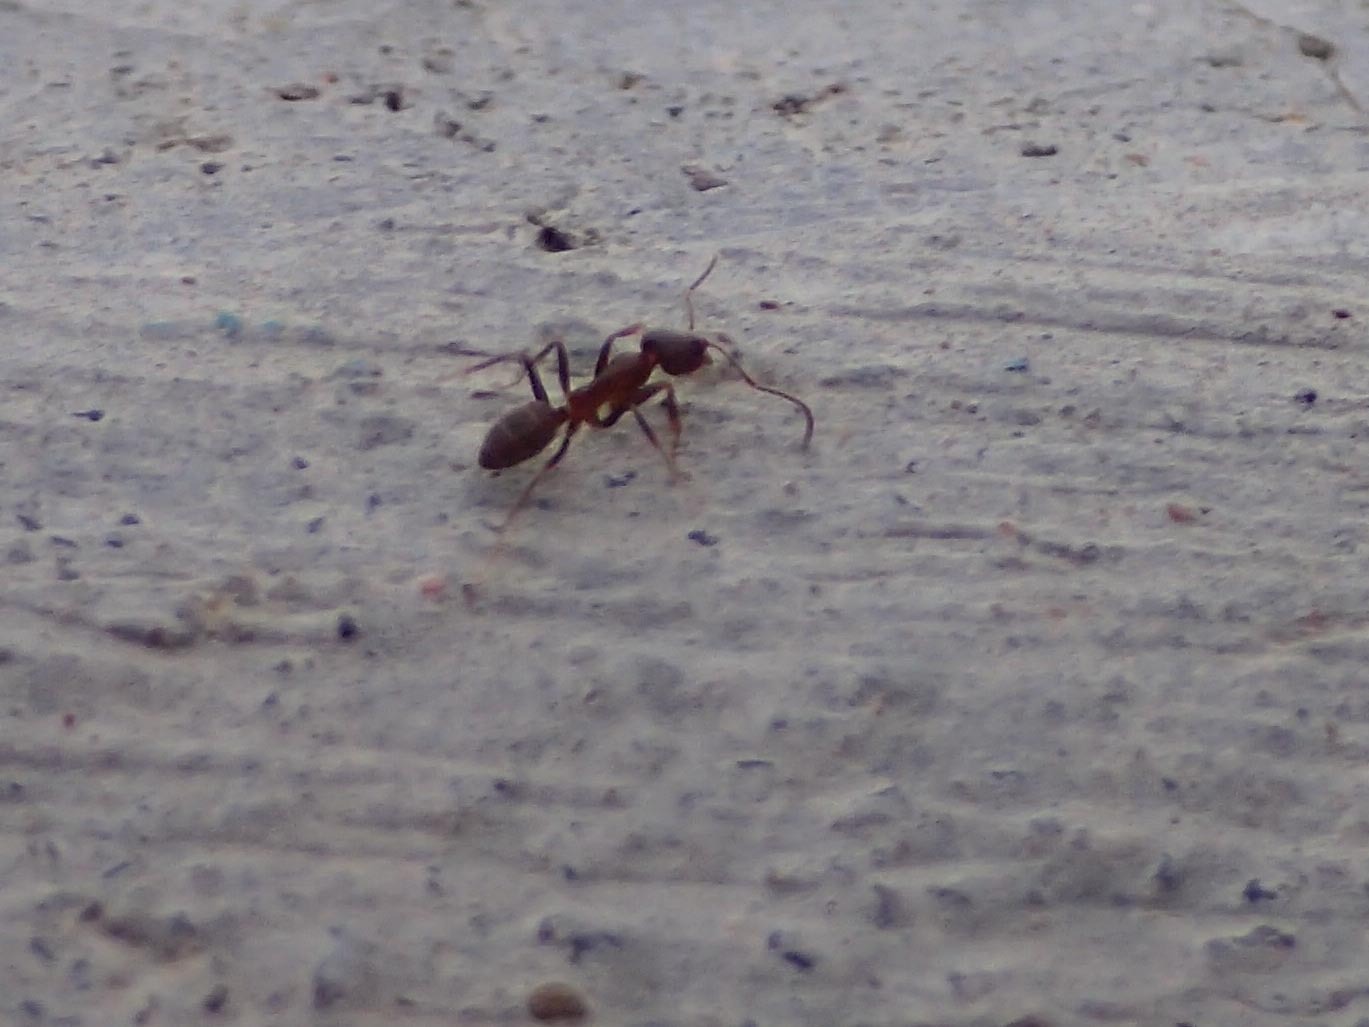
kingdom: Animalia
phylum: Arthropoda
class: Insecta
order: Hymenoptera
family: Formicidae
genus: Linepithema
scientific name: Linepithema humile
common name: Argentine ant
